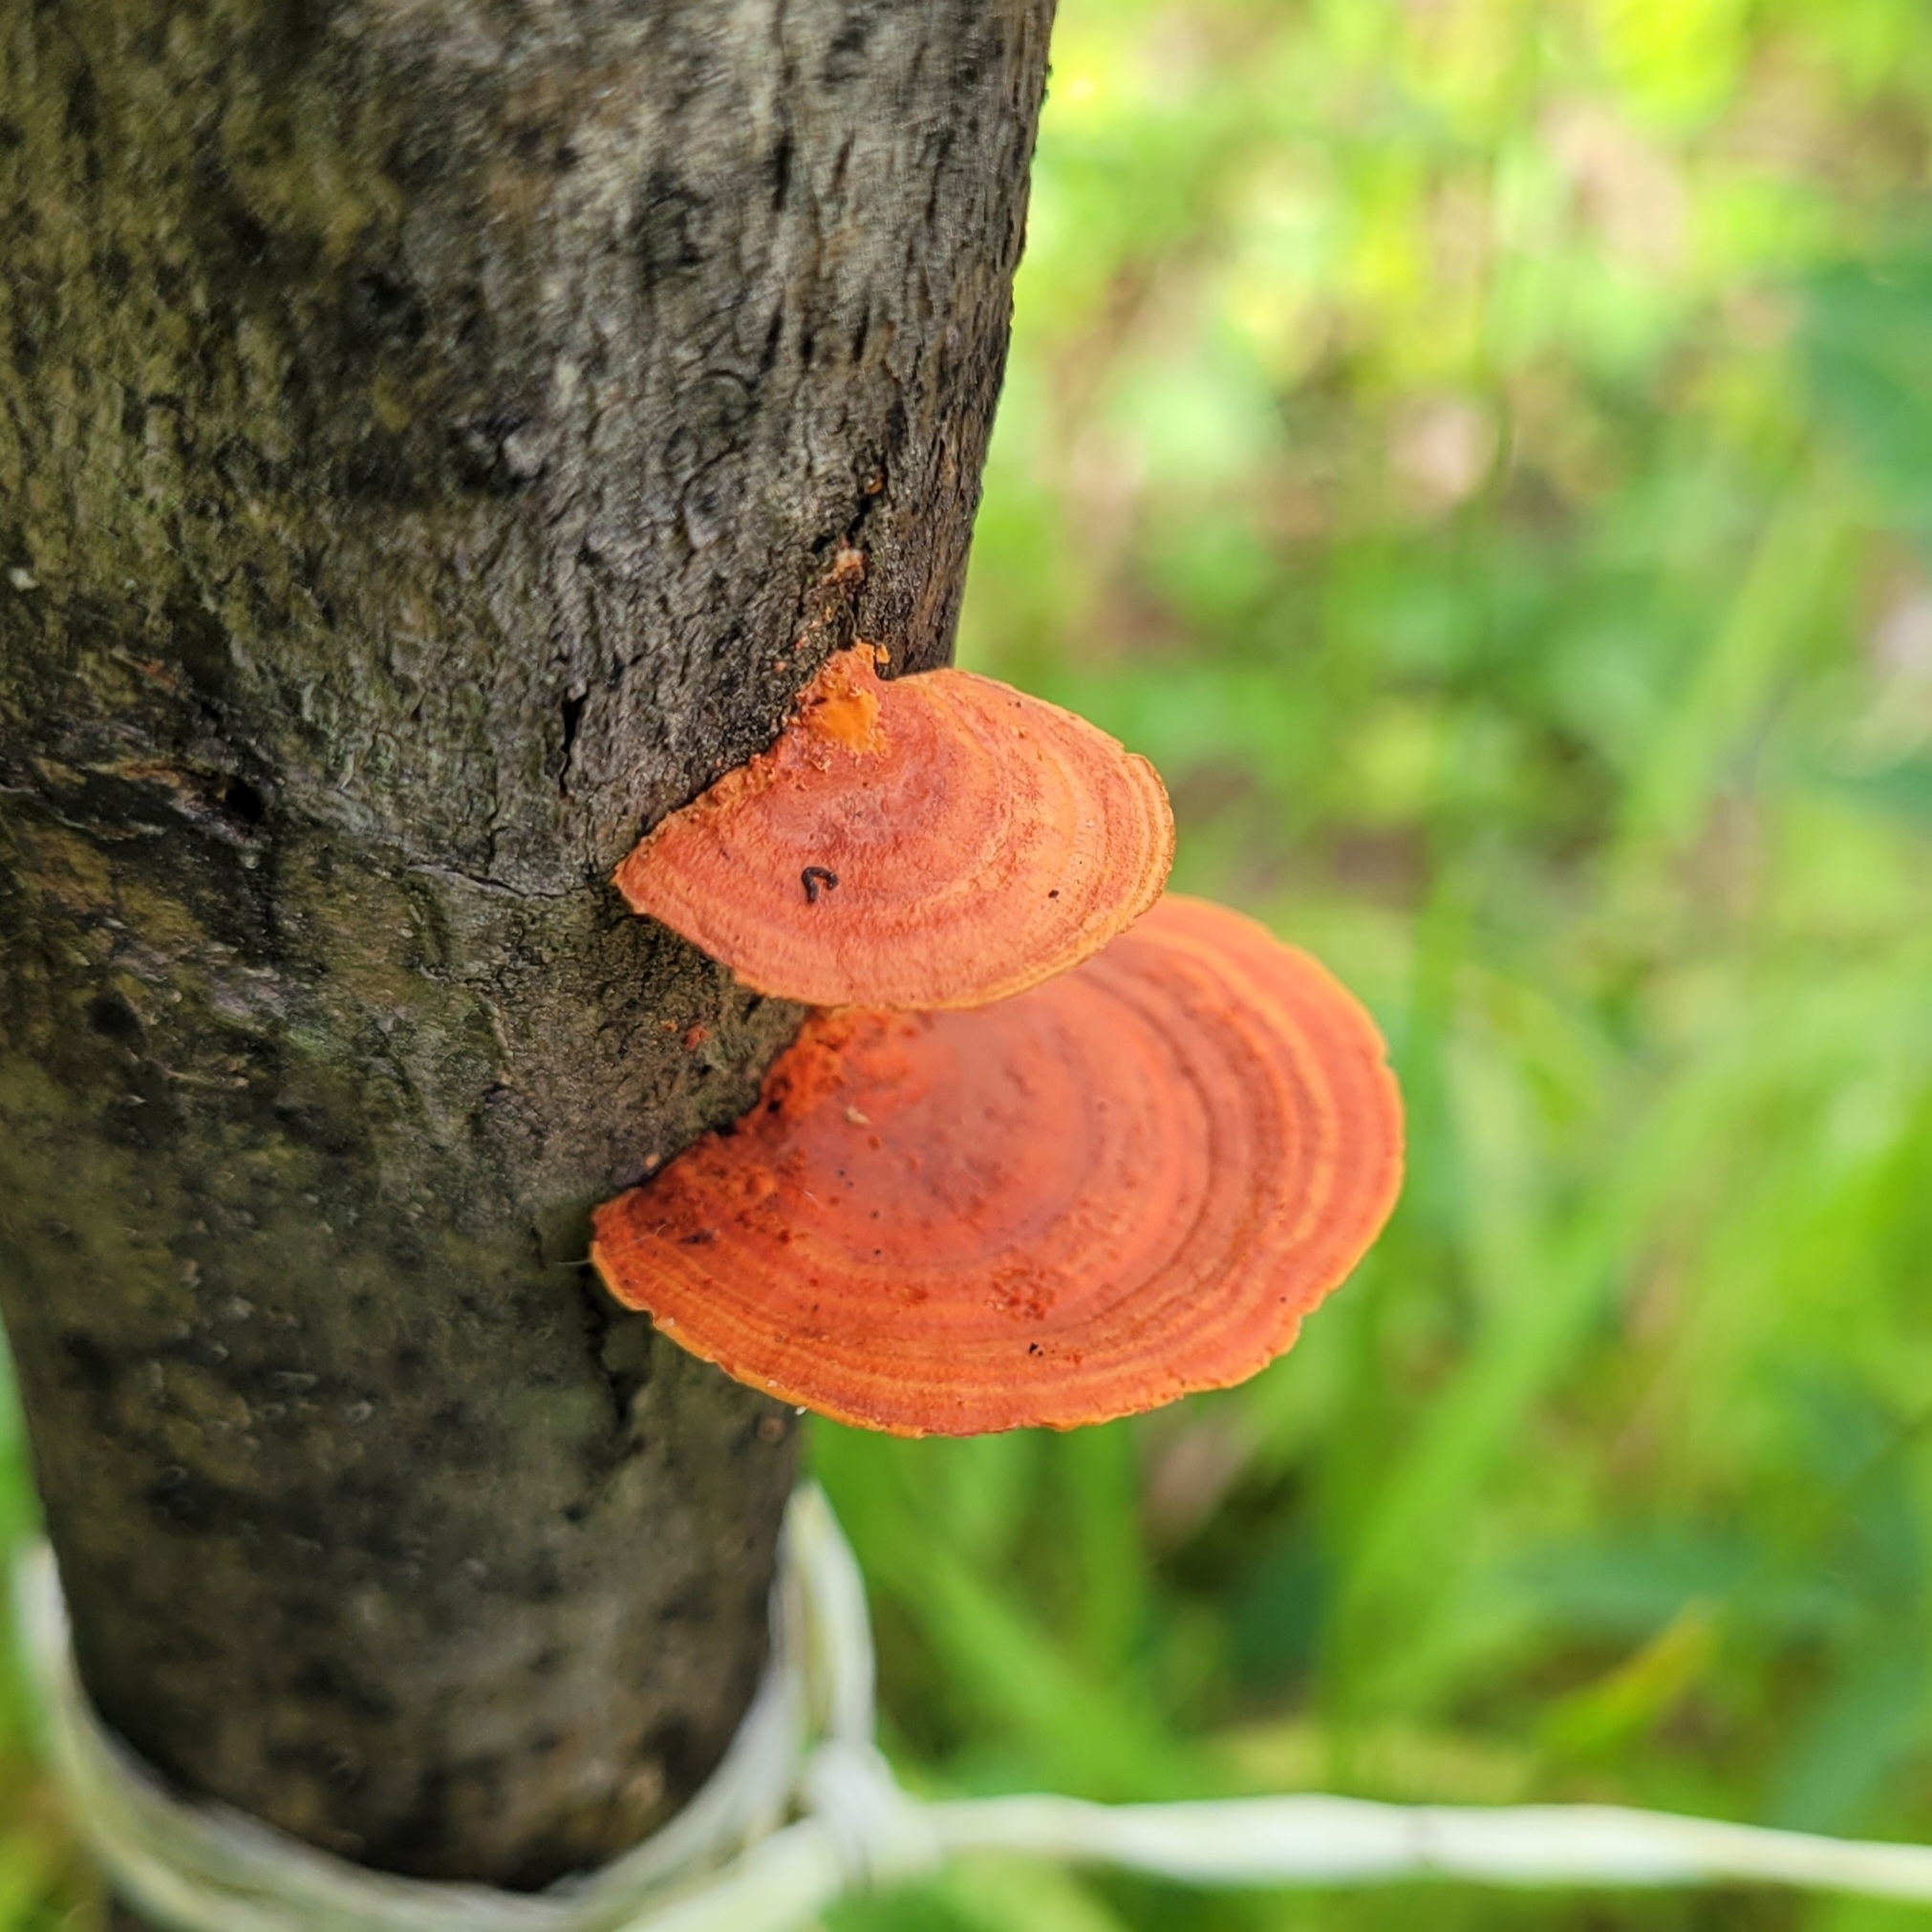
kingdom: Fungi
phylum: Basidiomycota
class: Agaricomycetes
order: Polyporales
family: Polyporaceae
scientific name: Polyporaceae
